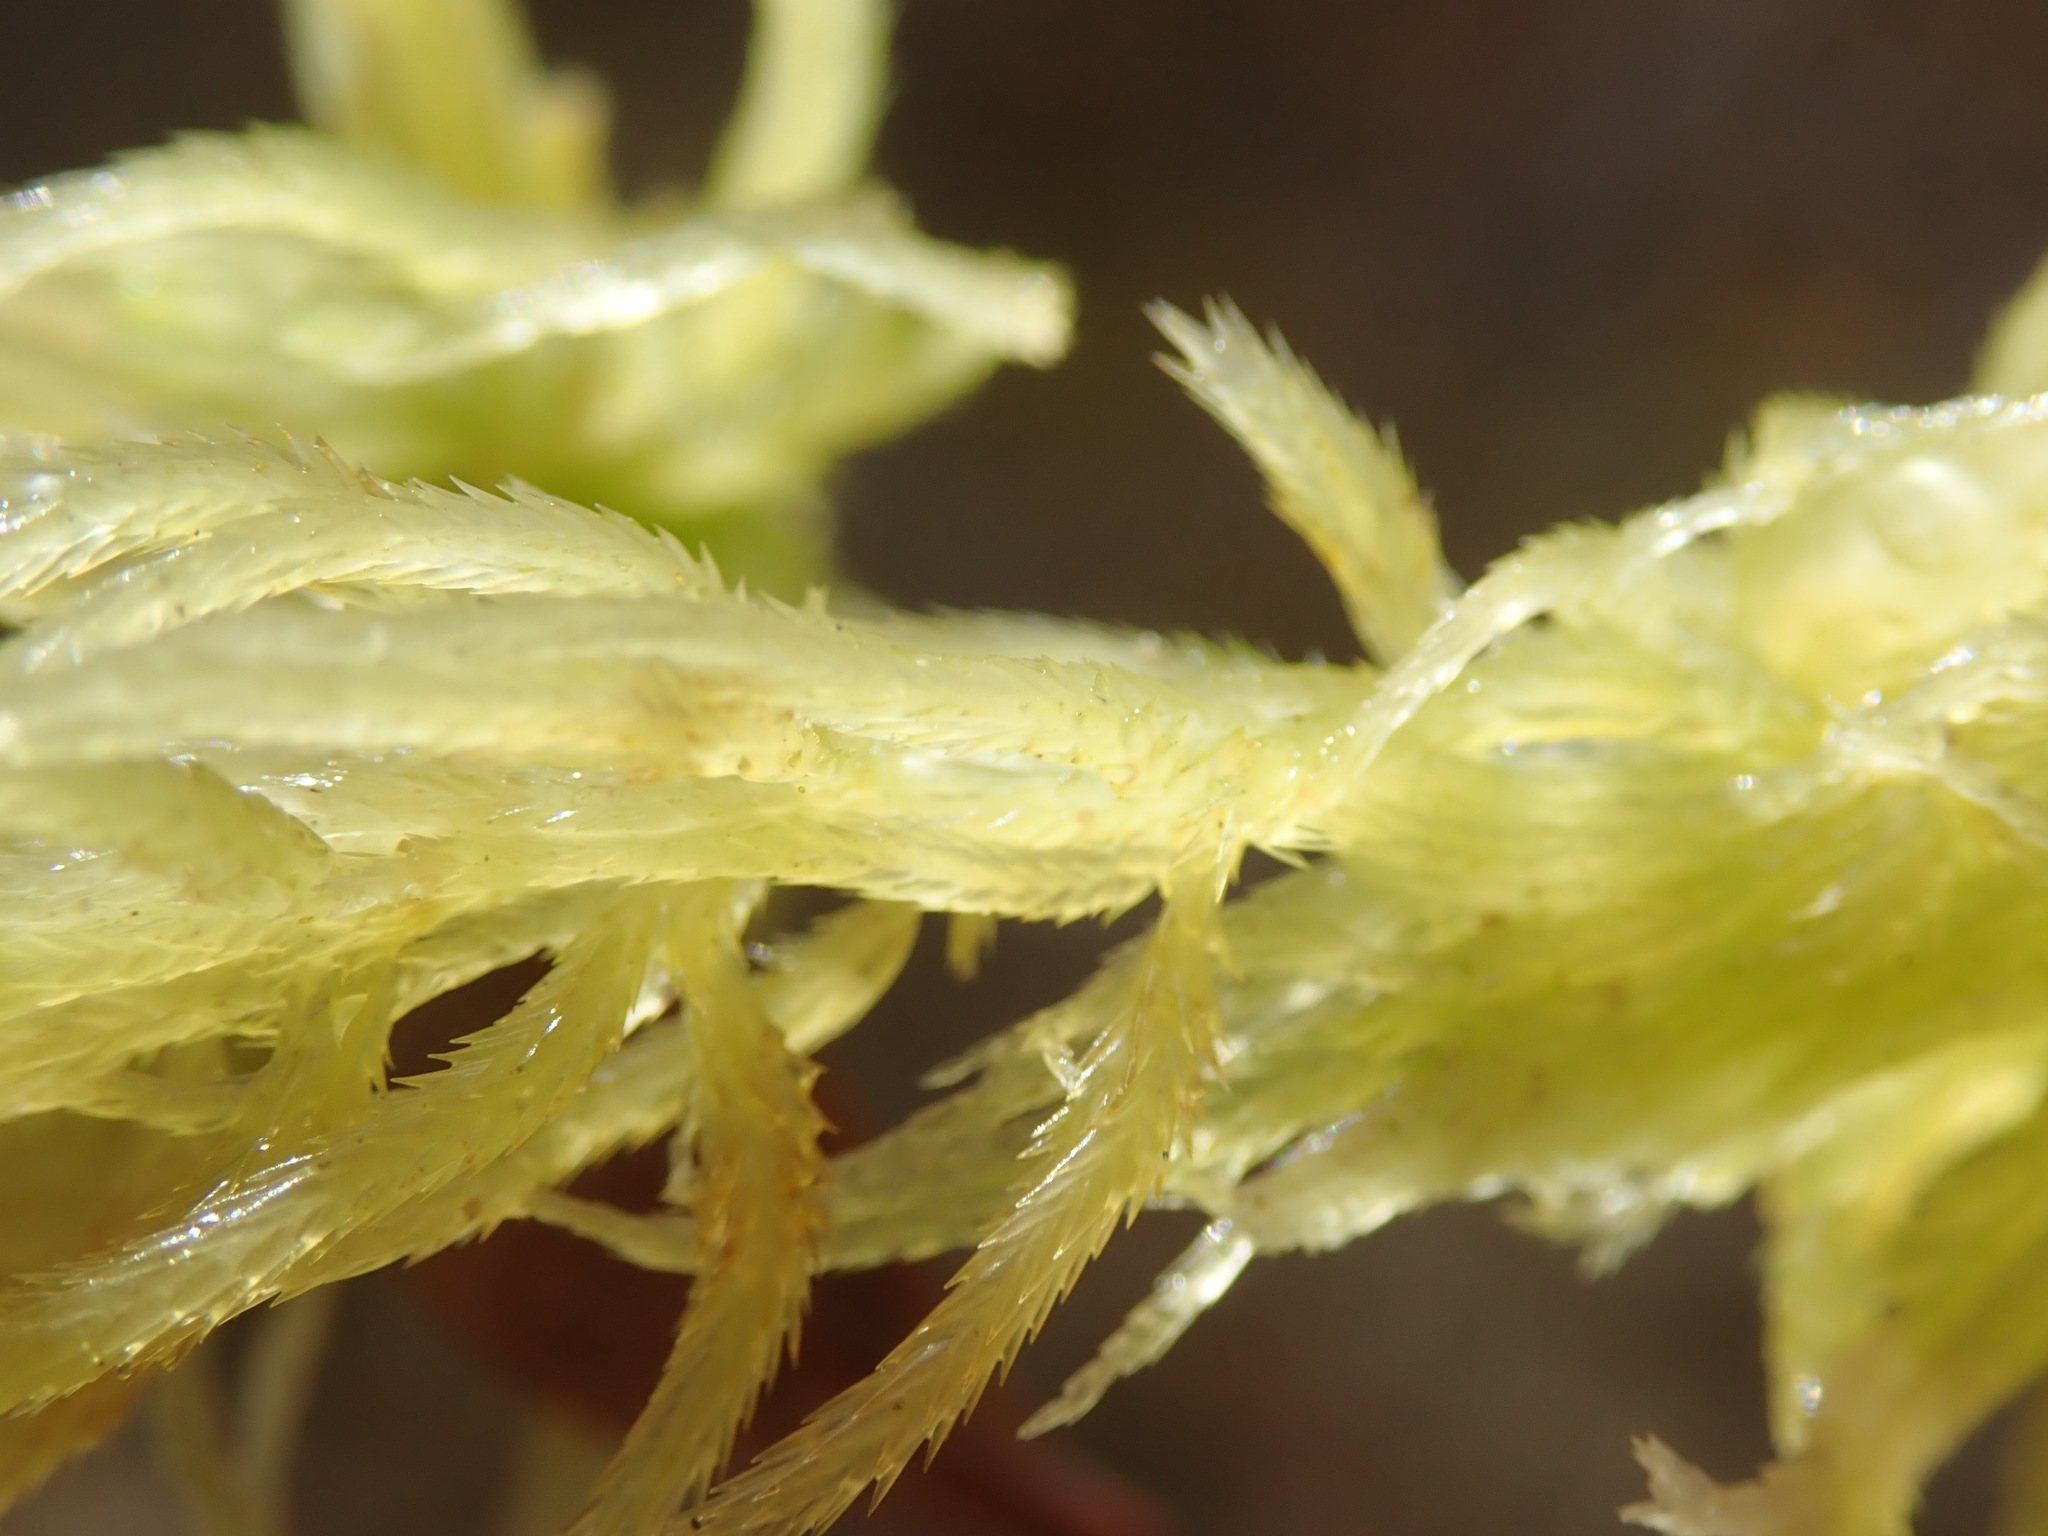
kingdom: Plantae
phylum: Bryophyta
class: Sphagnopsida
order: Sphagnales
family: Sphagnaceae
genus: Sphagnum
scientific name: Sphagnum pacificum
